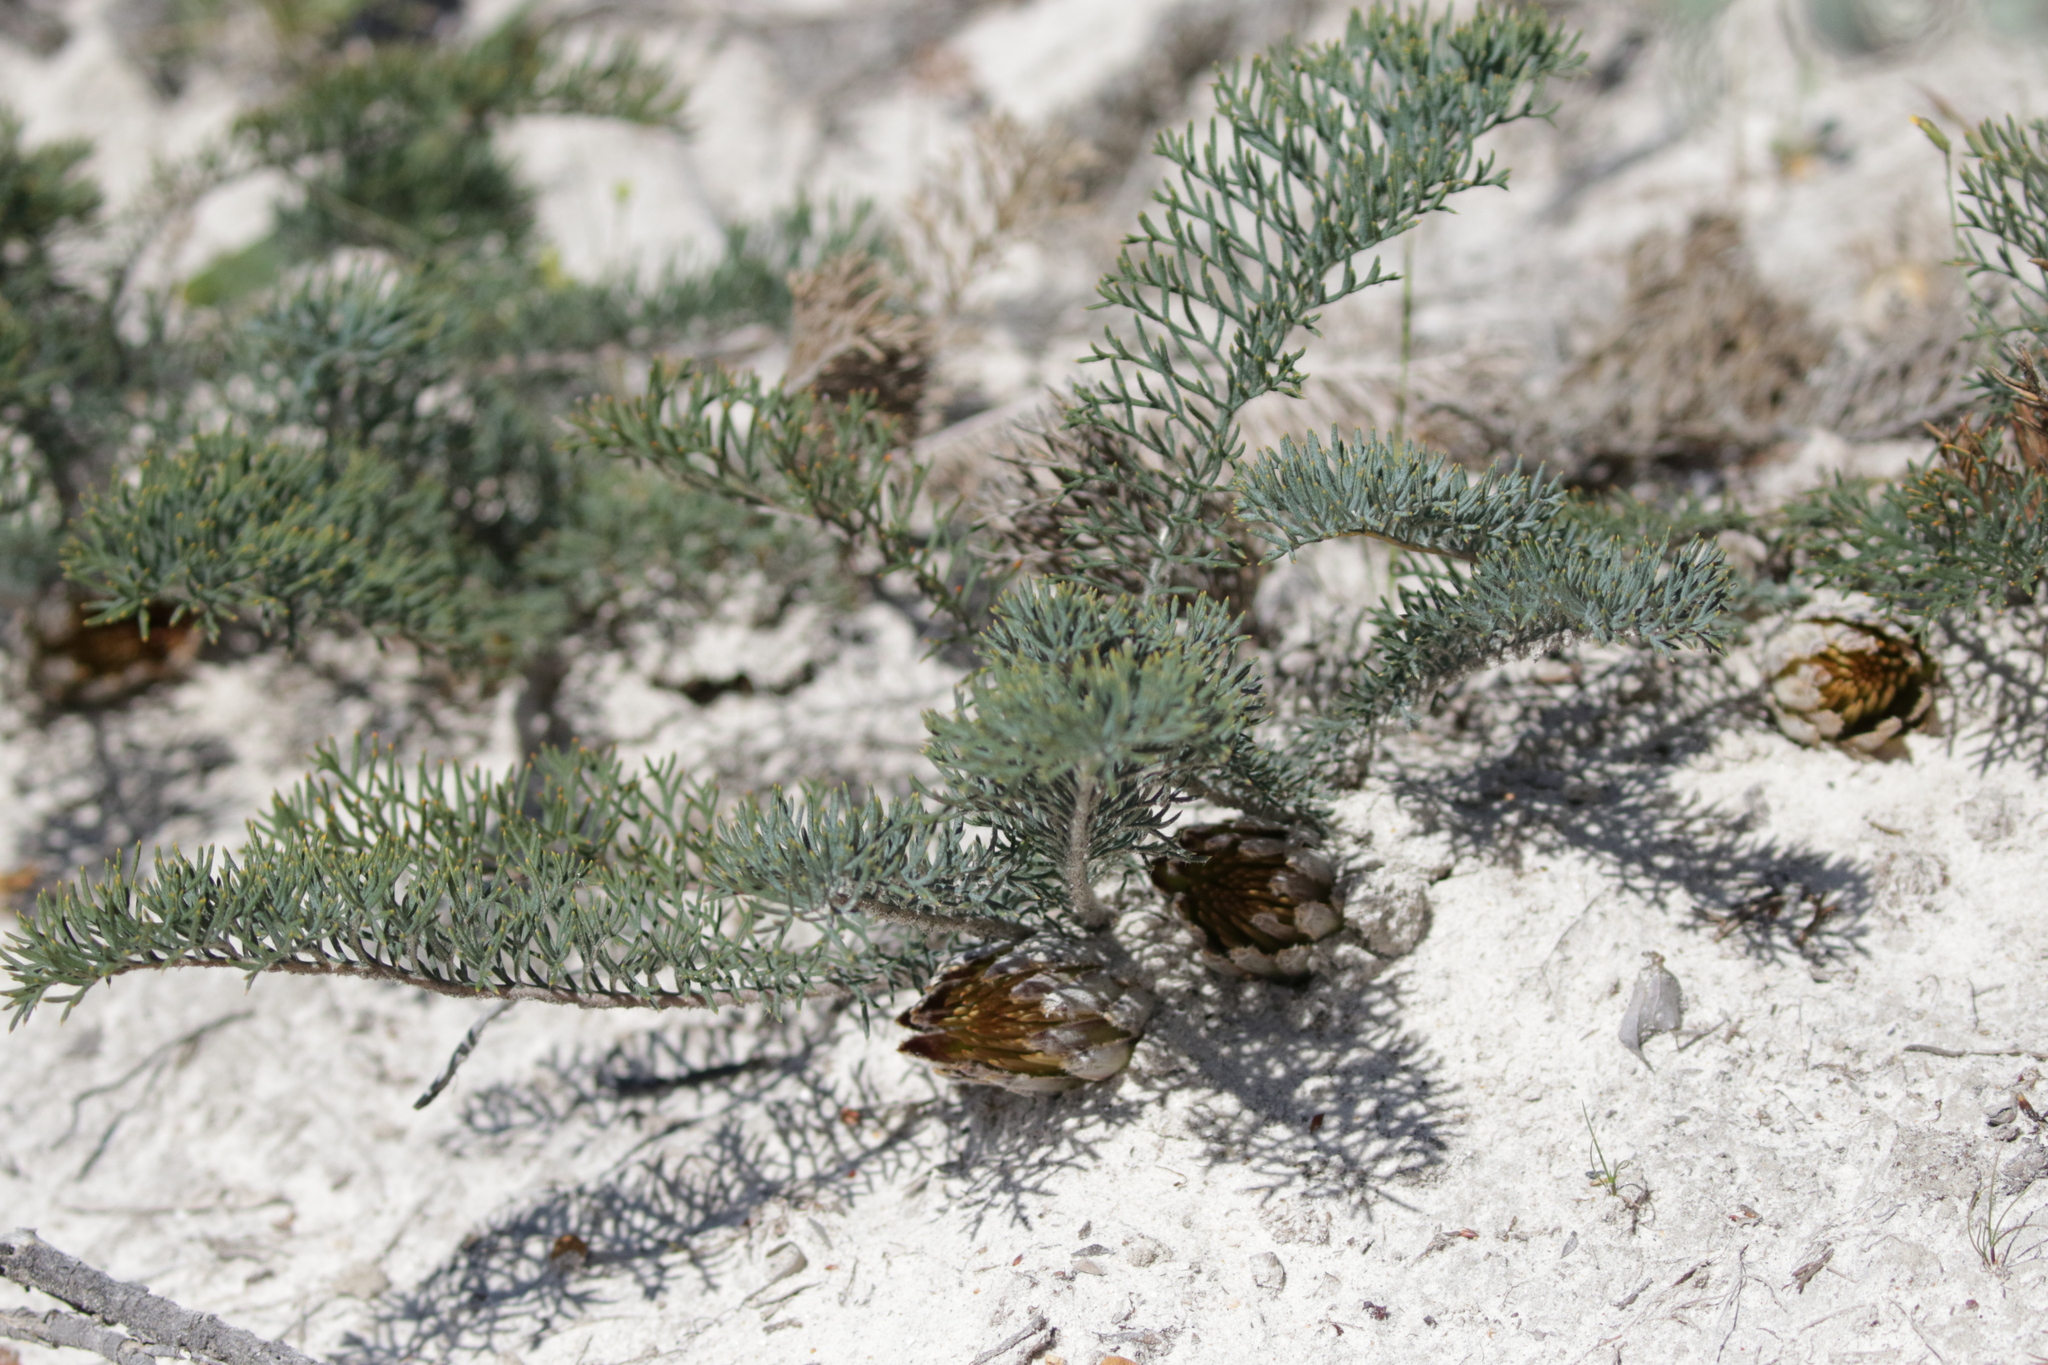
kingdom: Plantae
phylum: Tracheophyta
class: Magnoliopsida
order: Proteales
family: Proteaceae
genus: Banksia
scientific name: Banksia bipinnatifida
